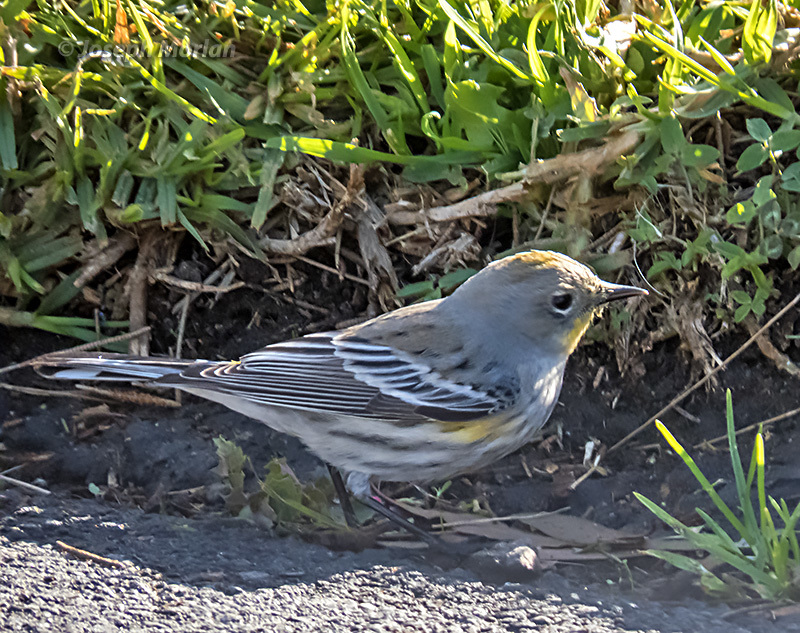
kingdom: Animalia
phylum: Chordata
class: Aves
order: Passeriformes
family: Parulidae
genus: Setophaga
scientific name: Setophaga coronata
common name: Myrtle warbler
